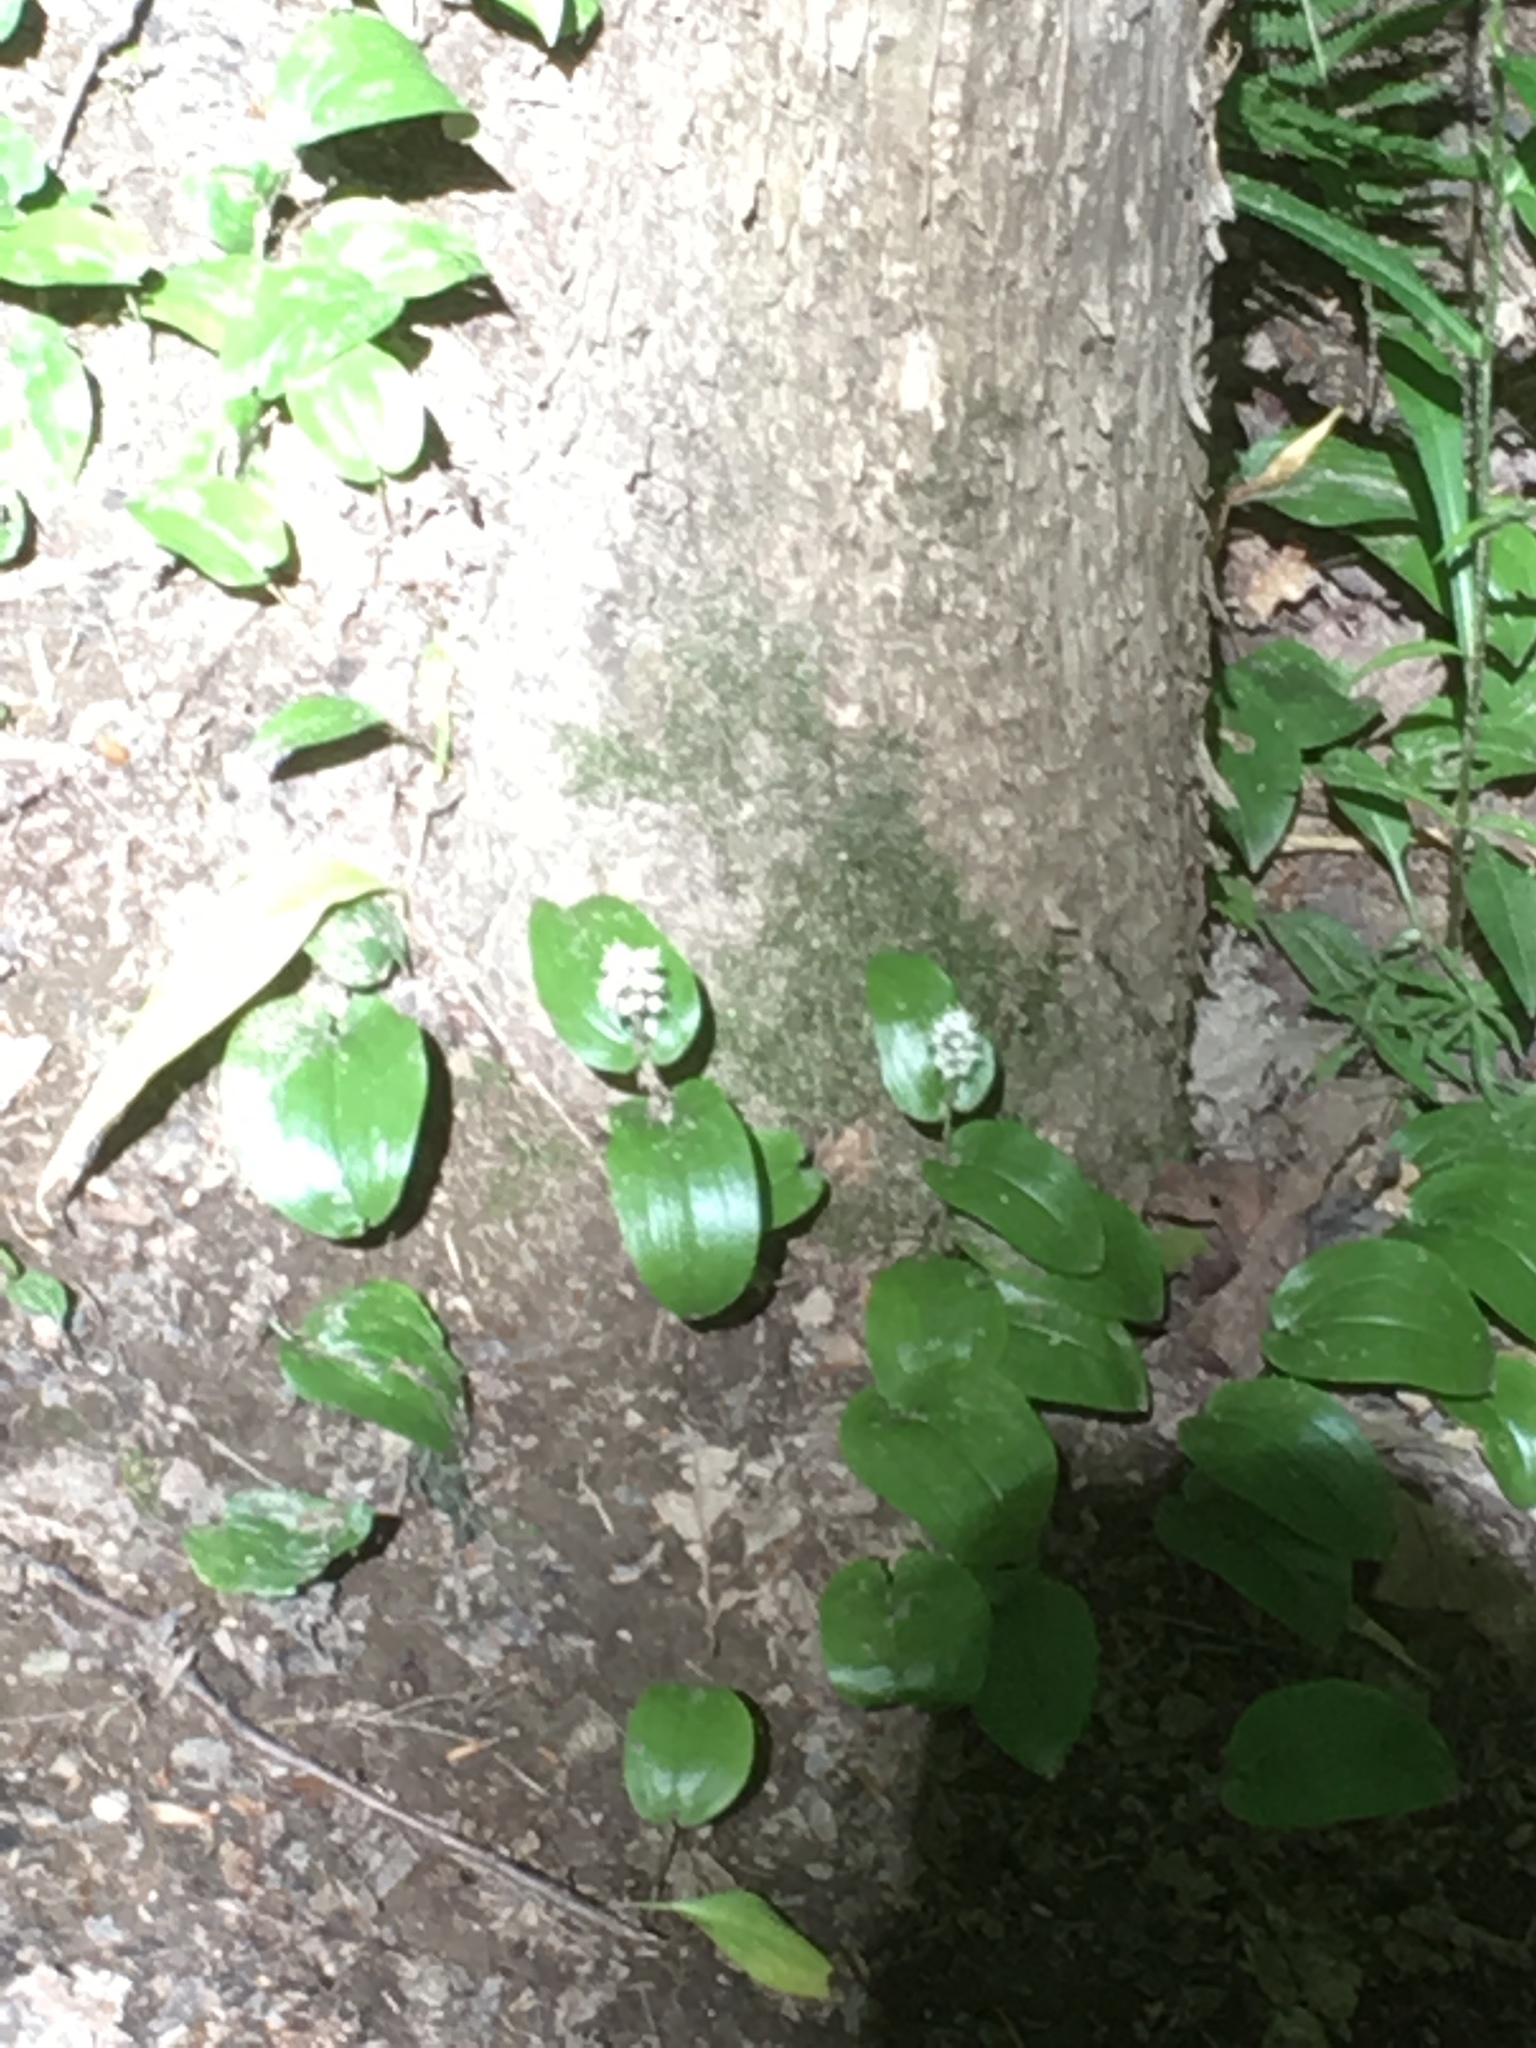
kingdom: Plantae
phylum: Tracheophyta
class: Liliopsida
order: Asparagales
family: Asparagaceae
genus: Maianthemum
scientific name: Maianthemum canadense
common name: False lily-of-the-valley
